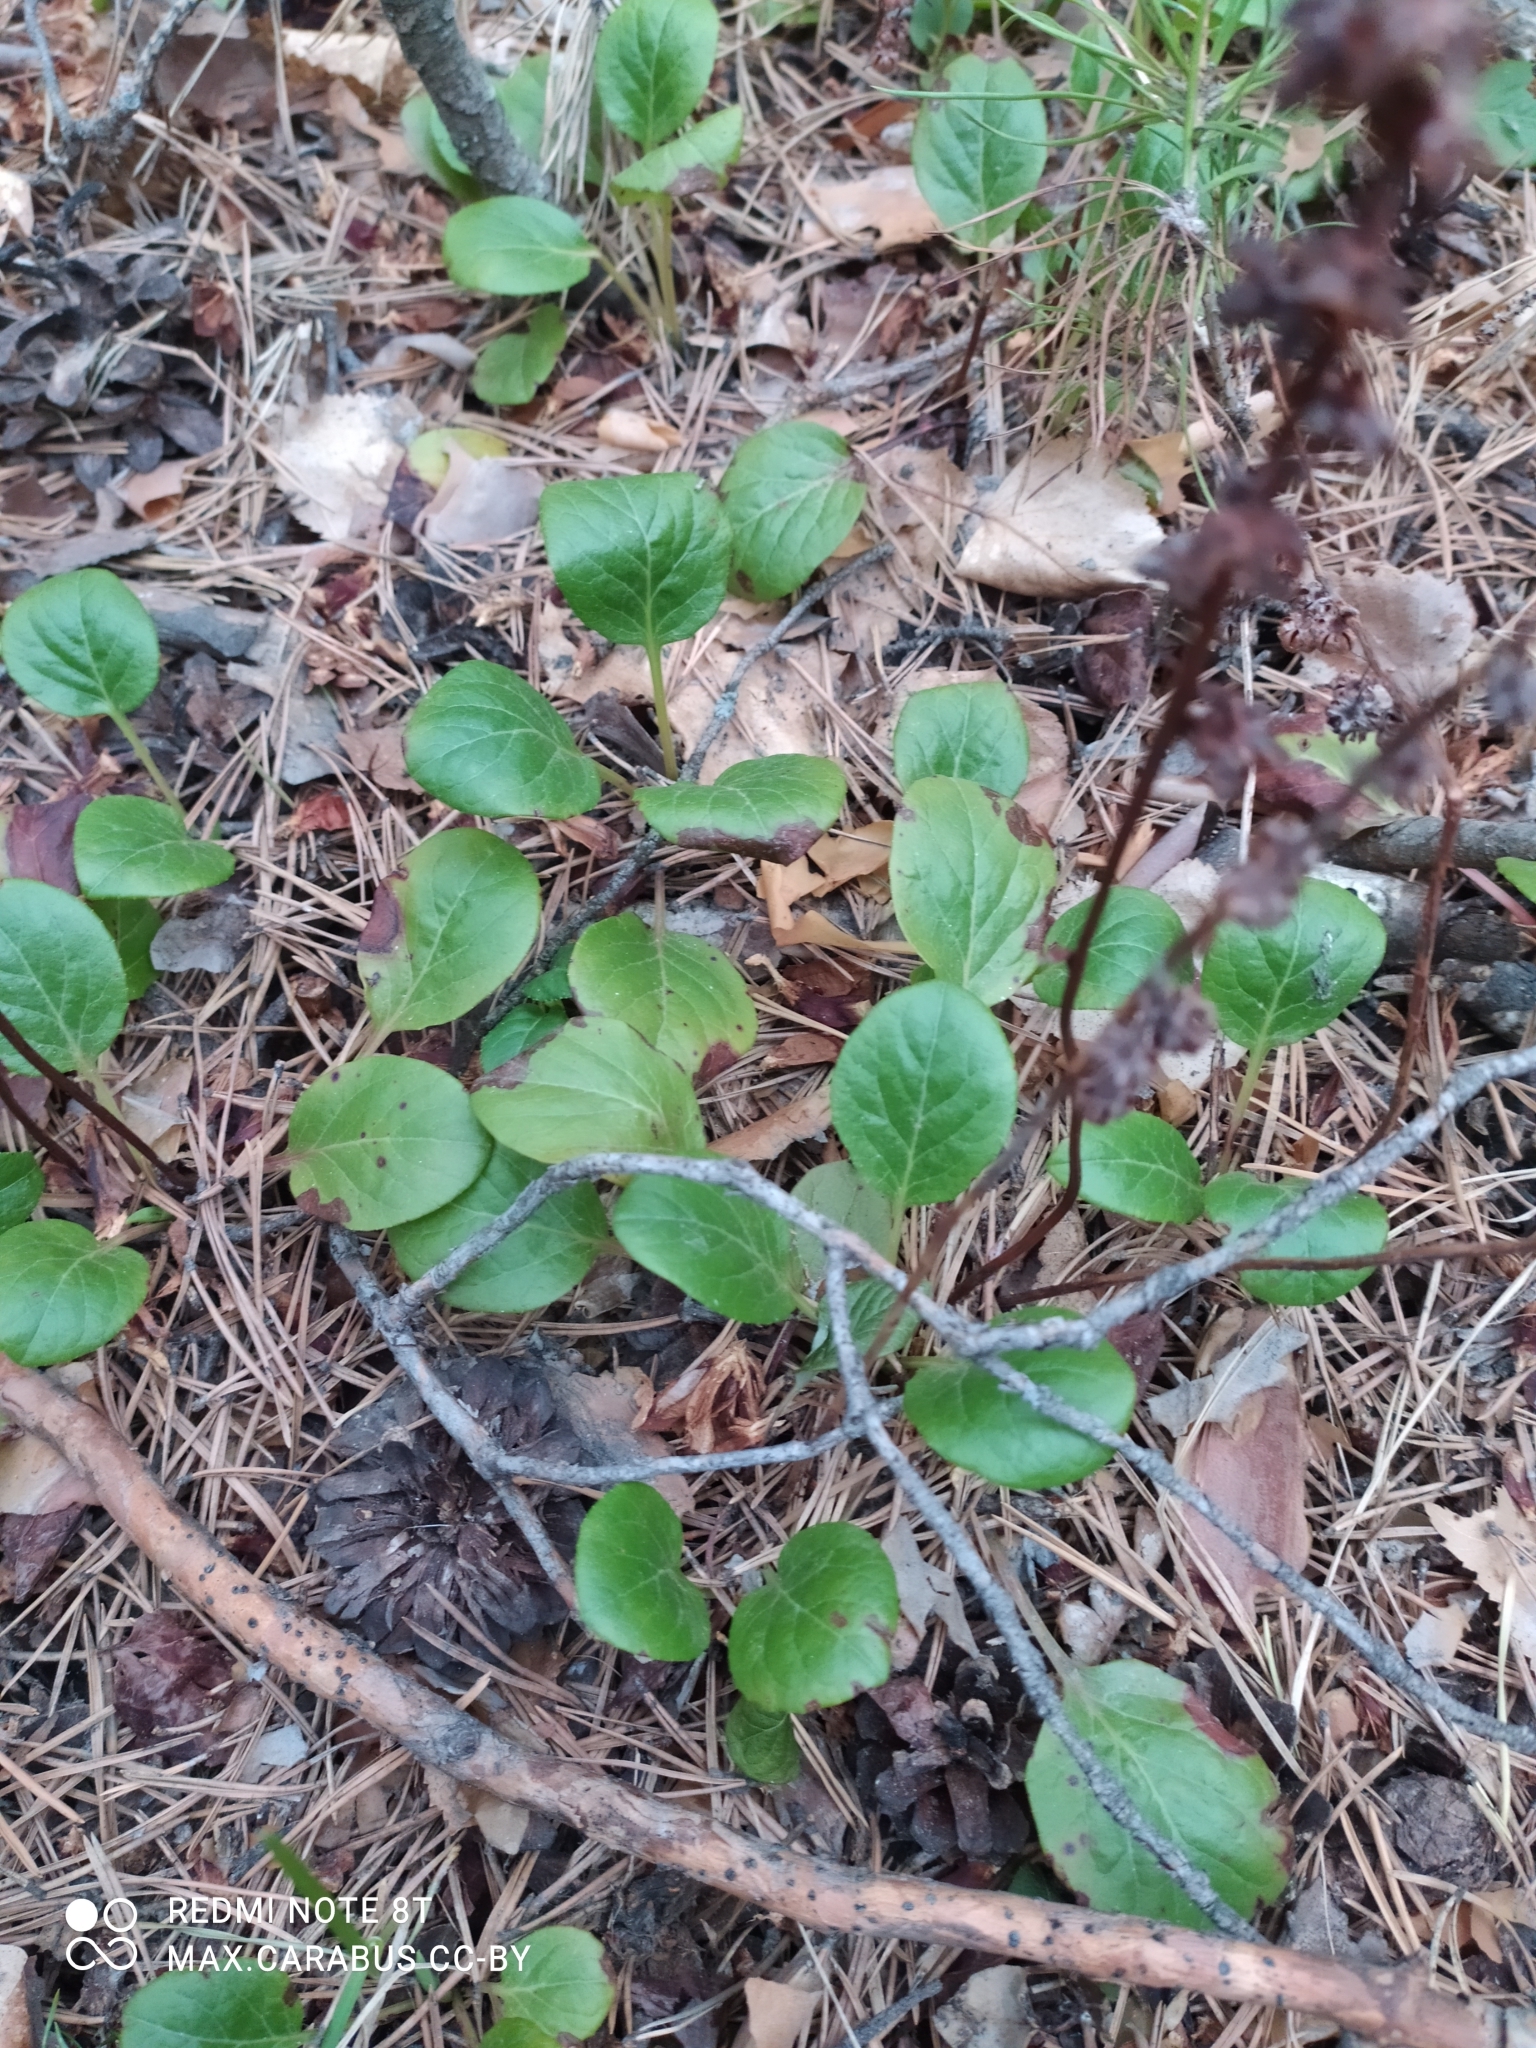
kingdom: Plantae
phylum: Tracheophyta
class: Magnoliopsida
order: Ericales
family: Ericaceae
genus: Pyrola
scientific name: Pyrola rotundifolia
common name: Round-leaved wintergreen
